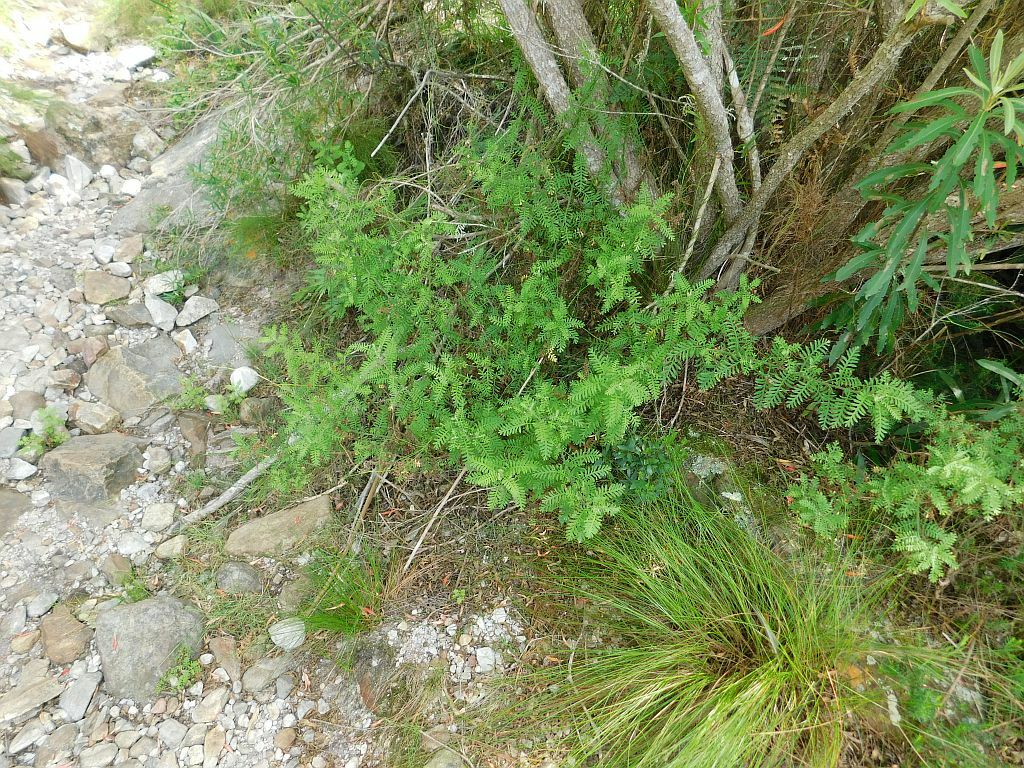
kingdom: Plantae
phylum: Tracheophyta
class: Magnoliopsida
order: Asterales
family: Asteraceae
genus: Hippia
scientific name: Hippia frutescens
